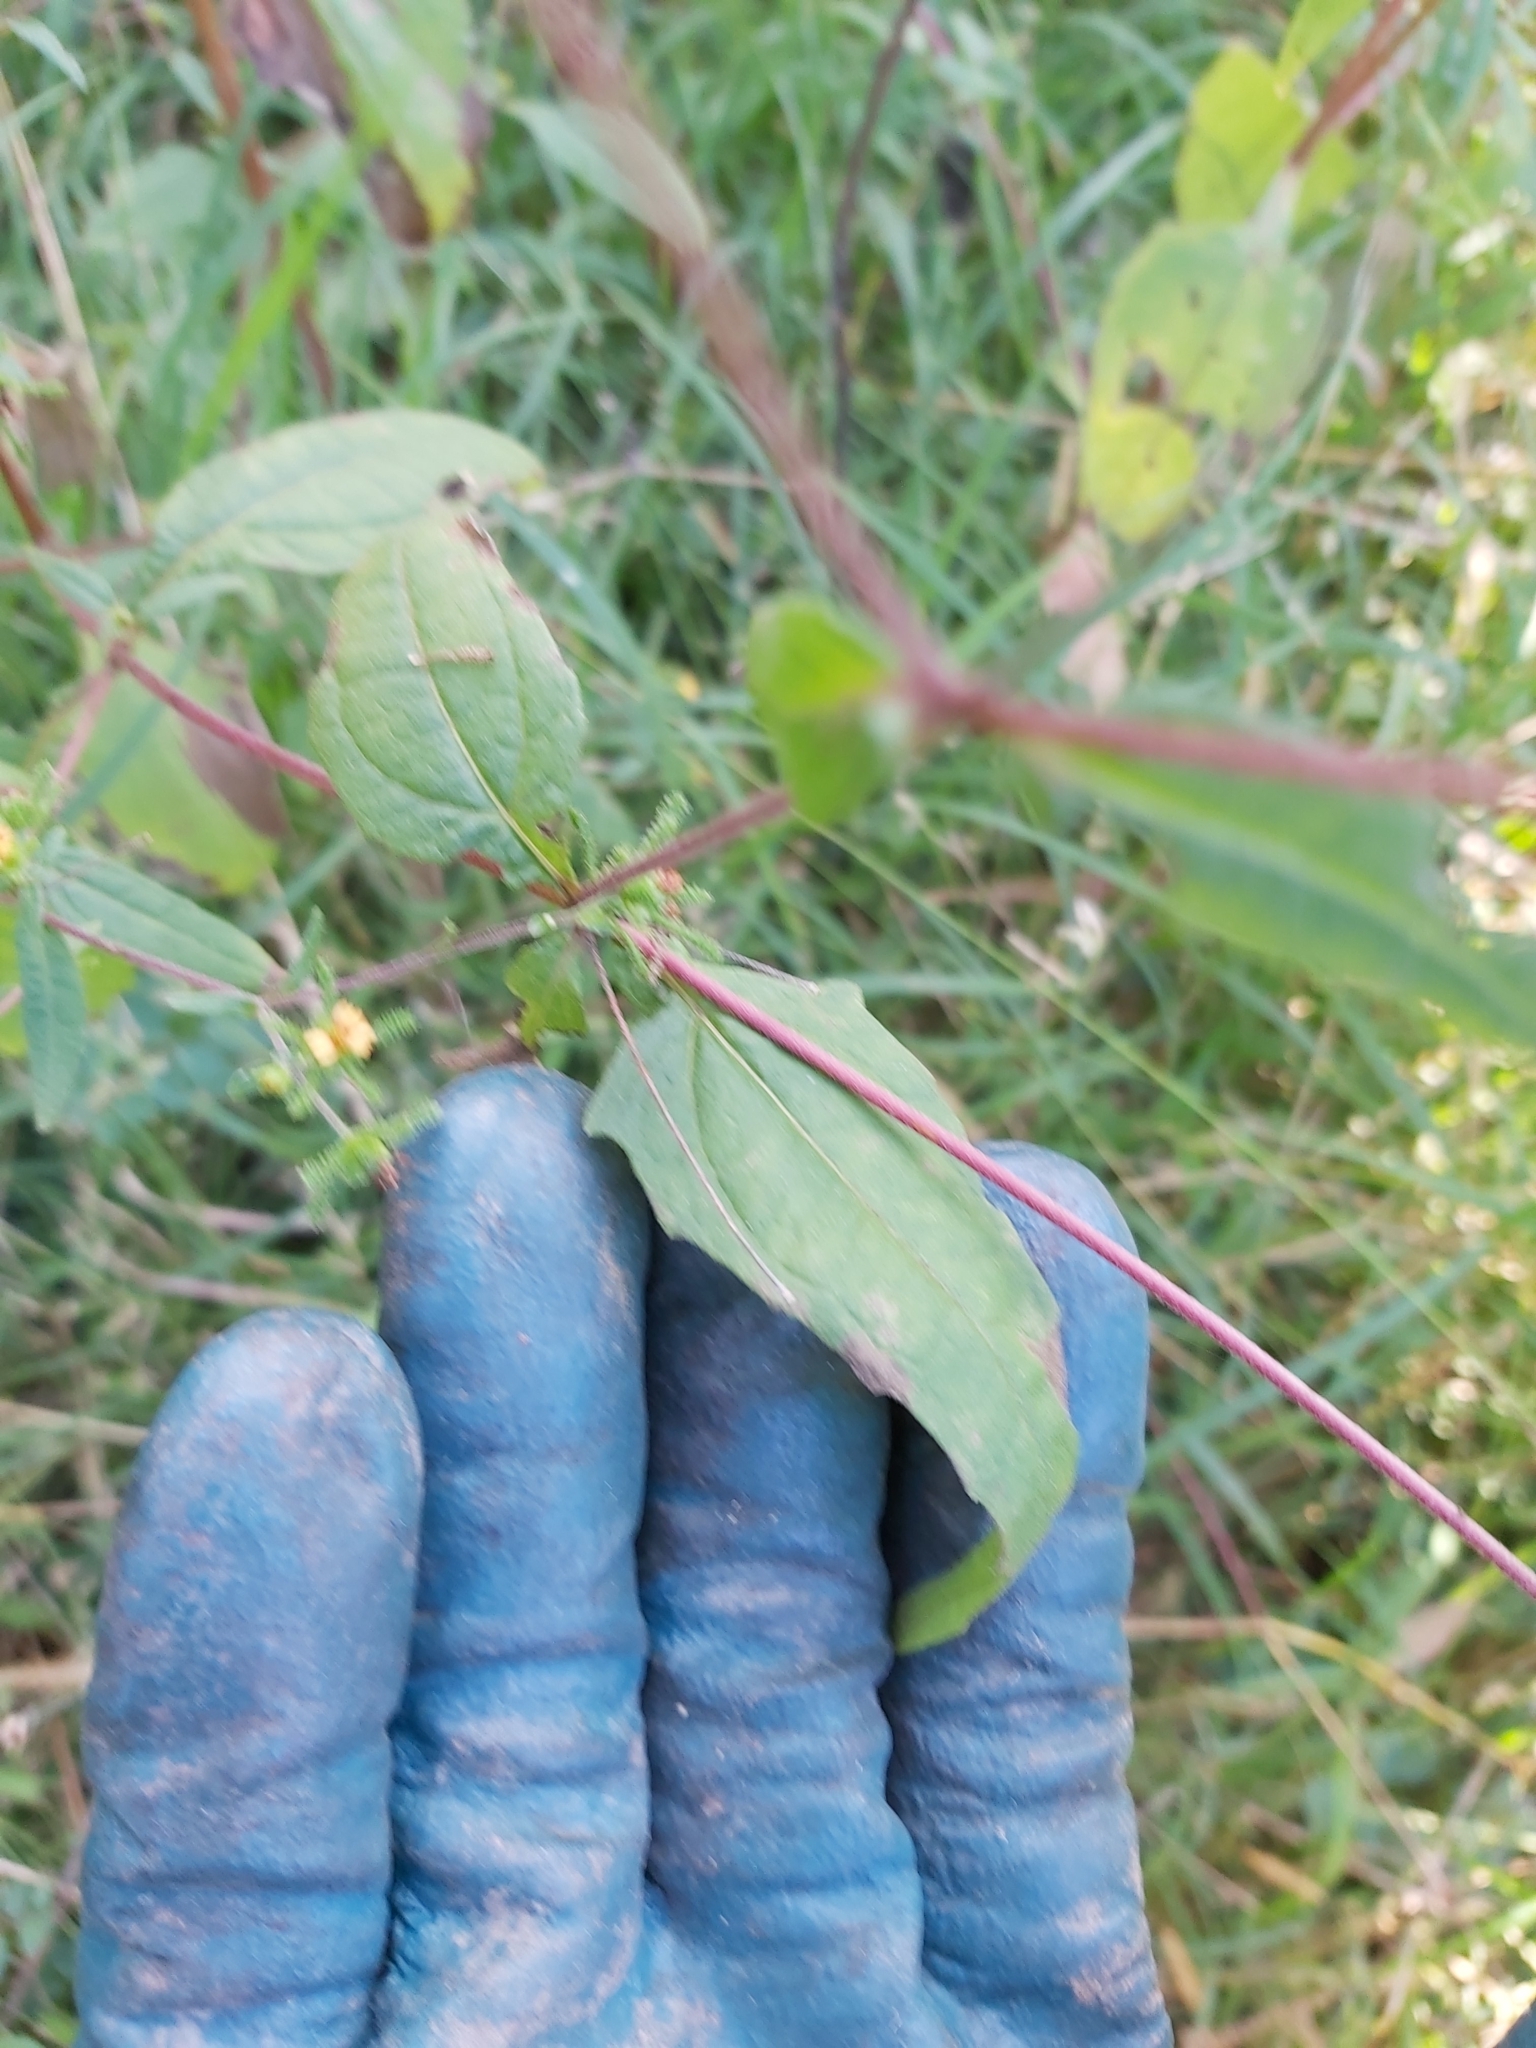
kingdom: Plantae
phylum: Tracheophyta
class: Magnoliopsida
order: Asterales
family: Asteraceae
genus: Sigesbeckia
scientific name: Sigesbeckia orientalis
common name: Eastern st paul's-wort
